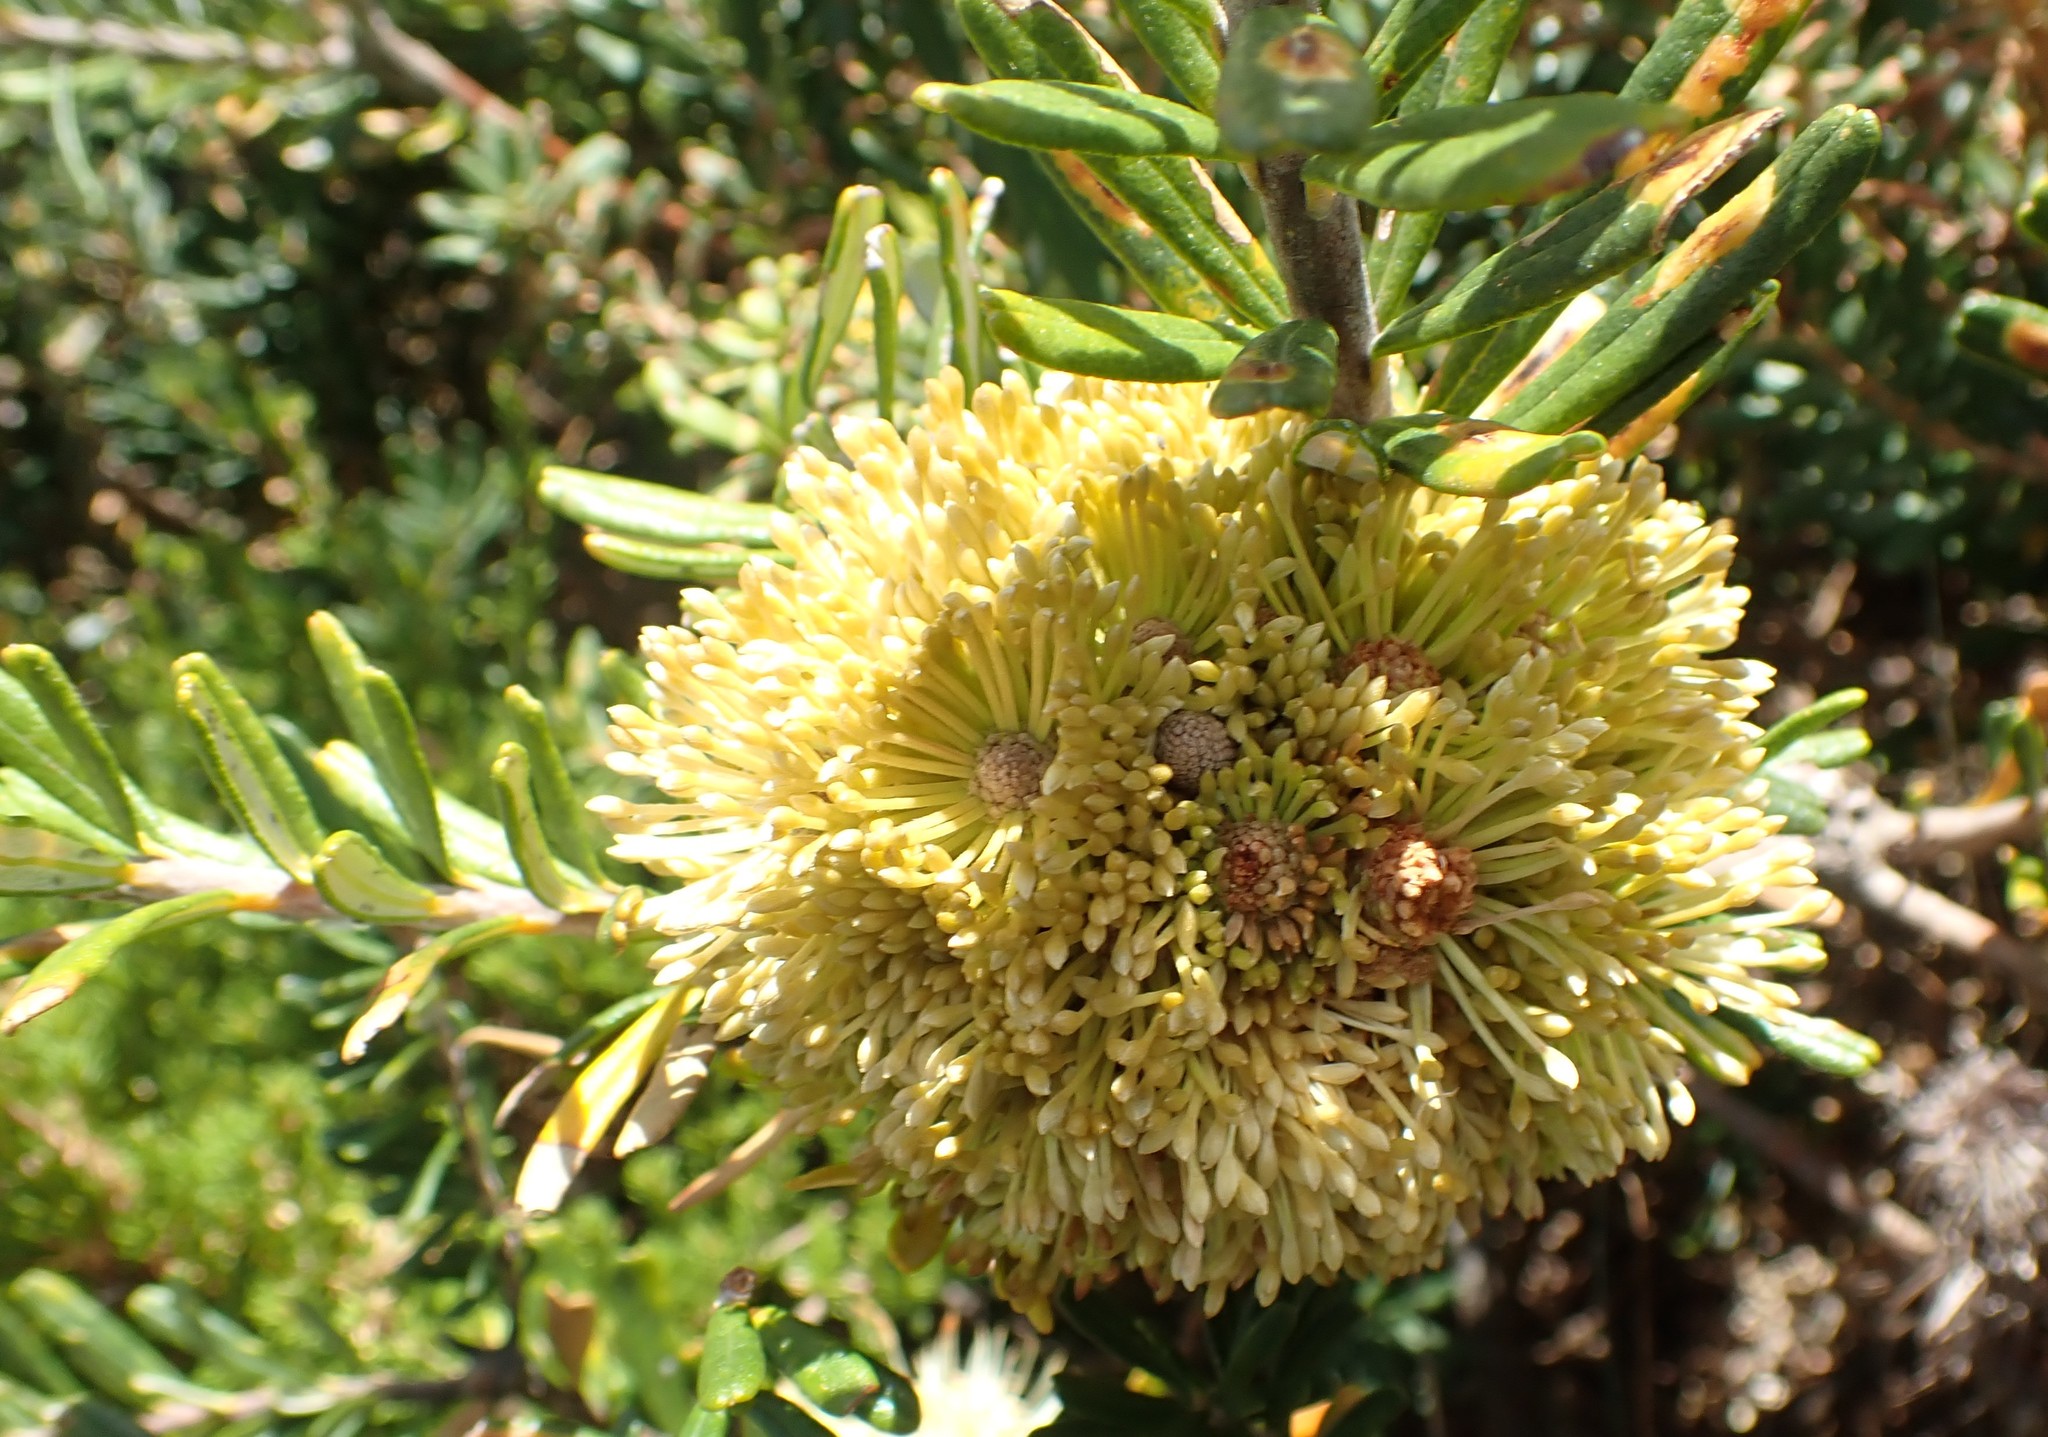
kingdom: Plantae
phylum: Tracheophyta
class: Magnoliopsida
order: Proteales
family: Proteaceae
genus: Banksia
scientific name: Banksia marginata
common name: Silver banksia
